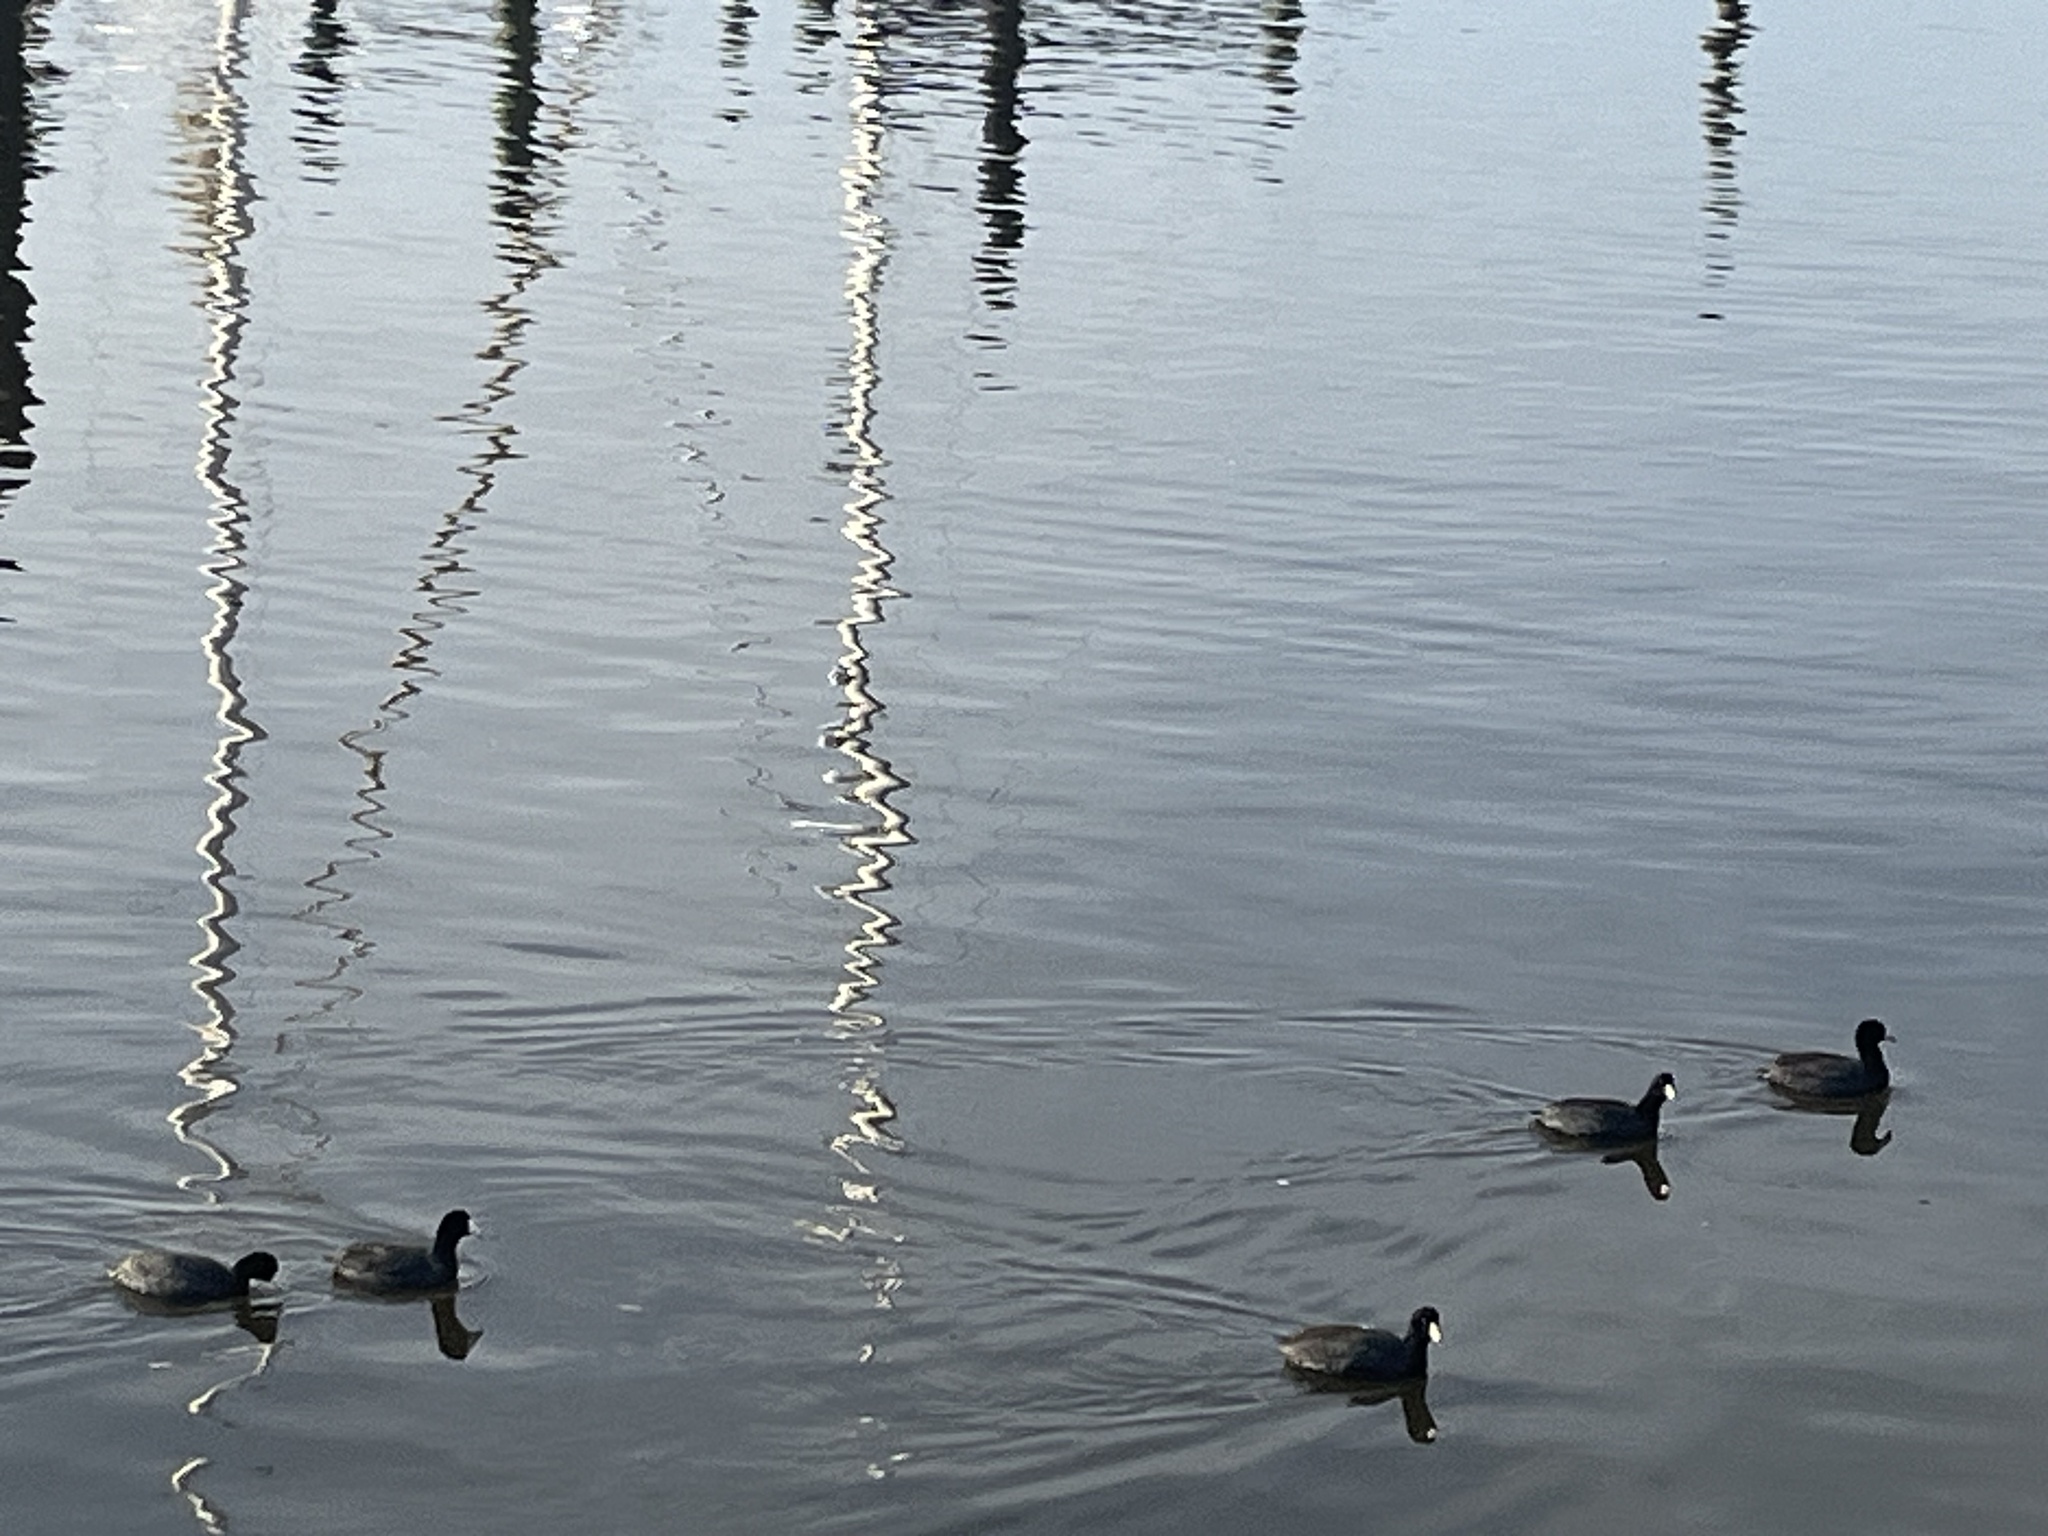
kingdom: Animalia
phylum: Chordata
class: Aves
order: Gruiformes
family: Rallidae
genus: Fulica
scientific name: Fulica americana
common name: American coot
